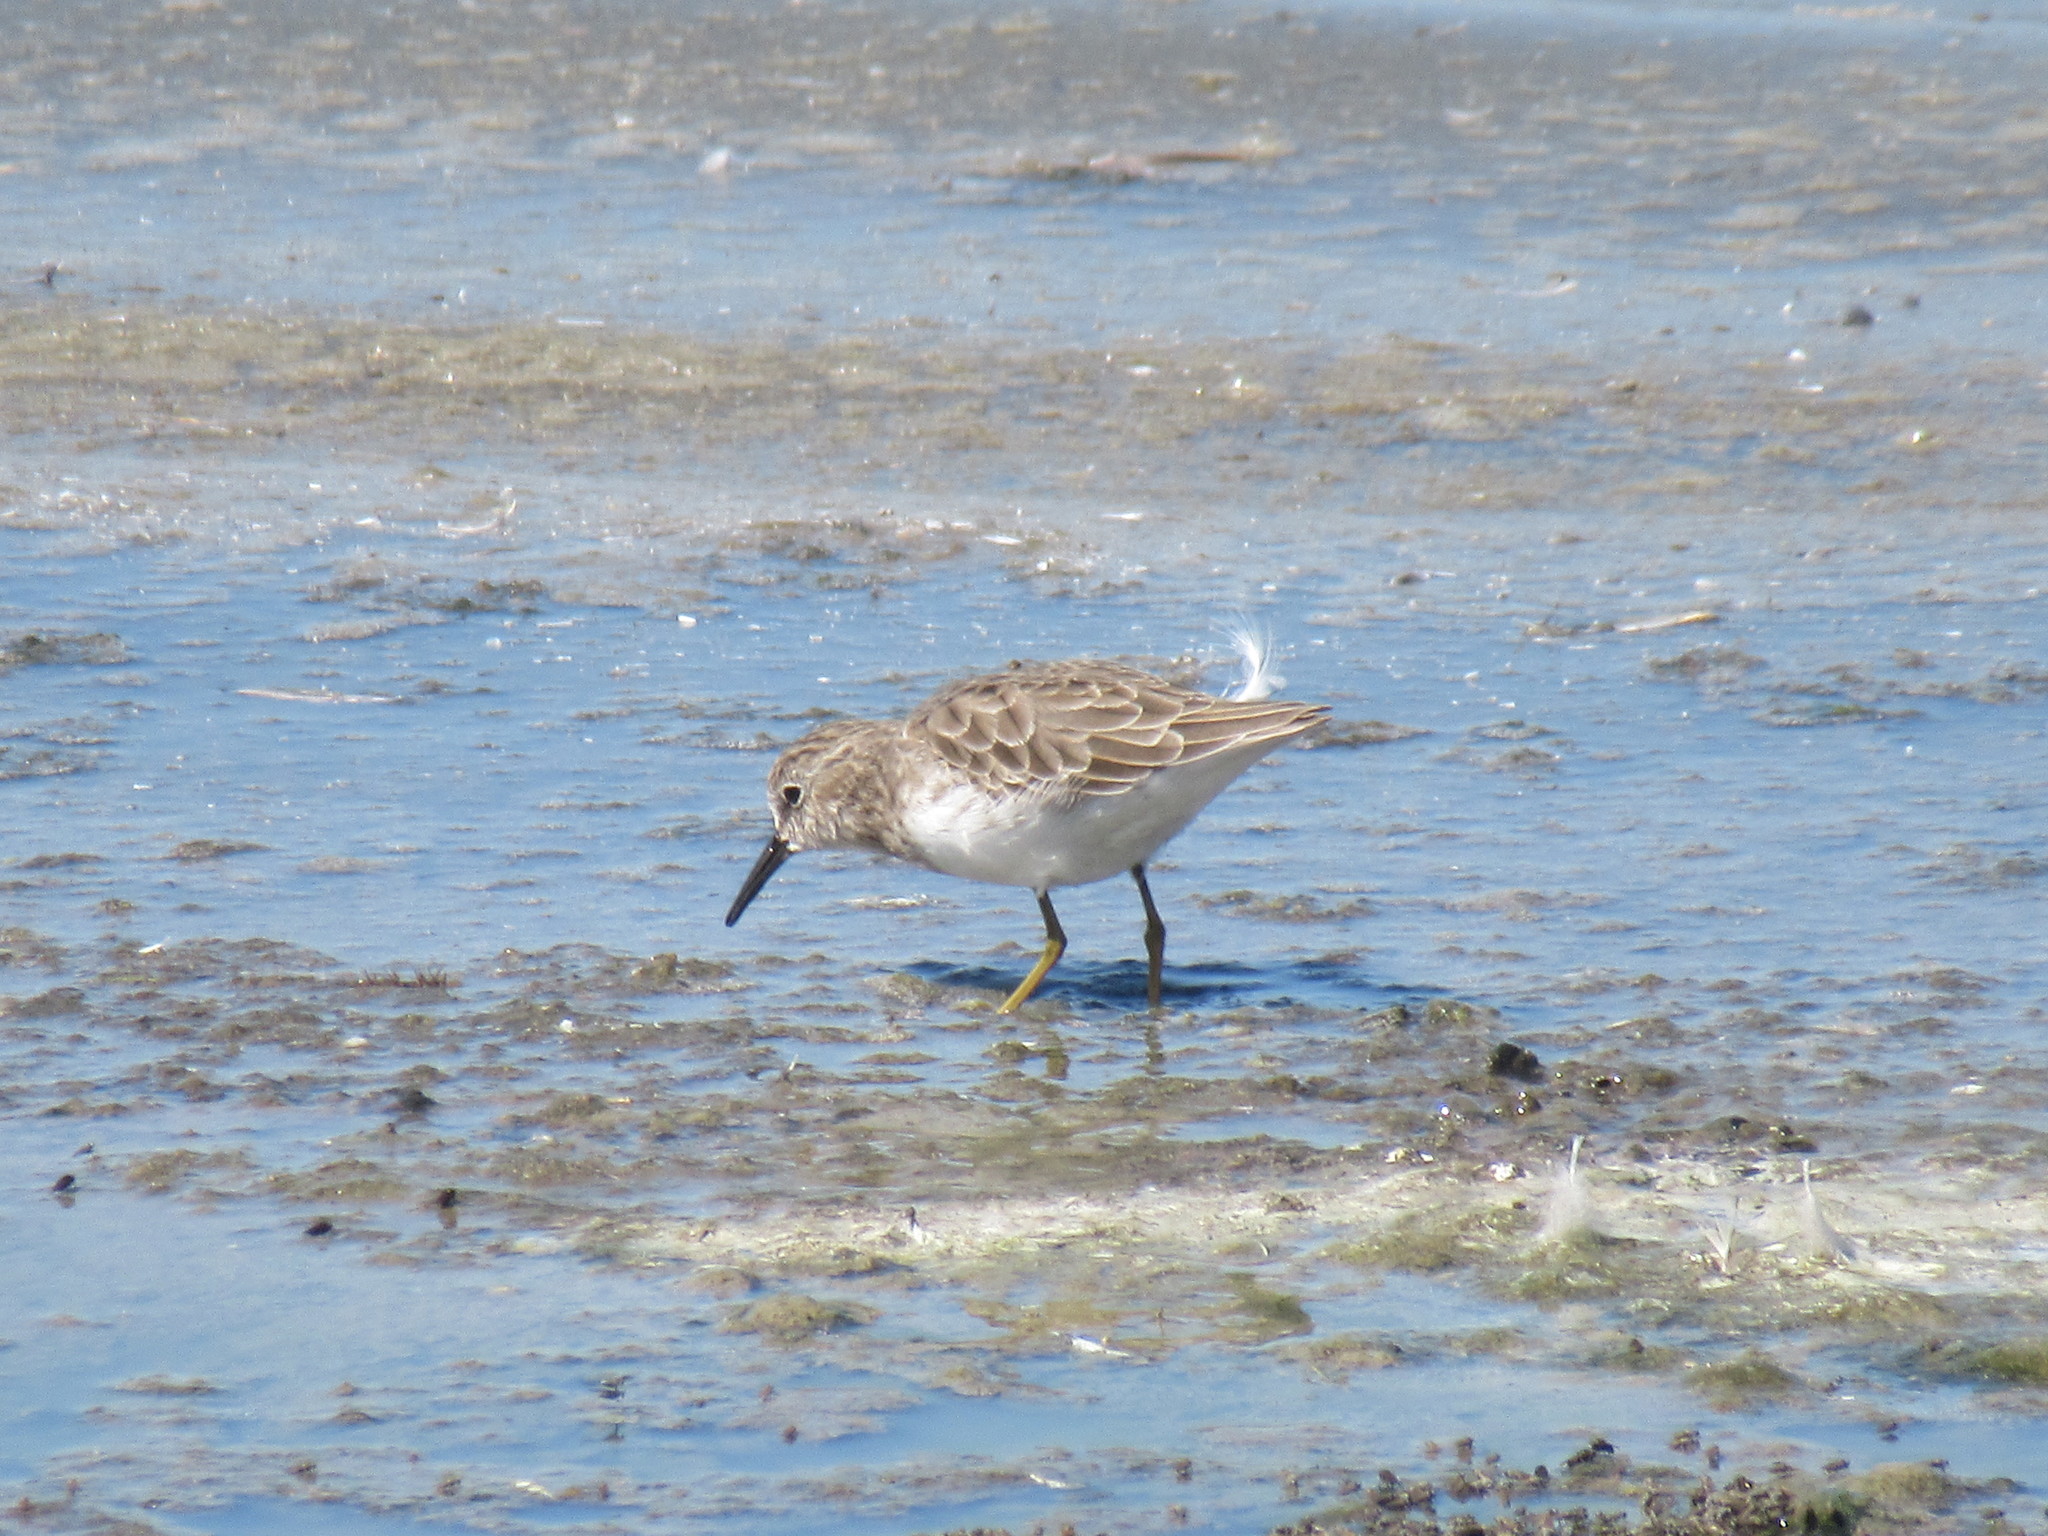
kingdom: Animalia
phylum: Chordata
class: Aves
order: Charadriiformes
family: Scolopacidae
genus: Calidris
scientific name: Calidris minutilla
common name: Least sandpiper
